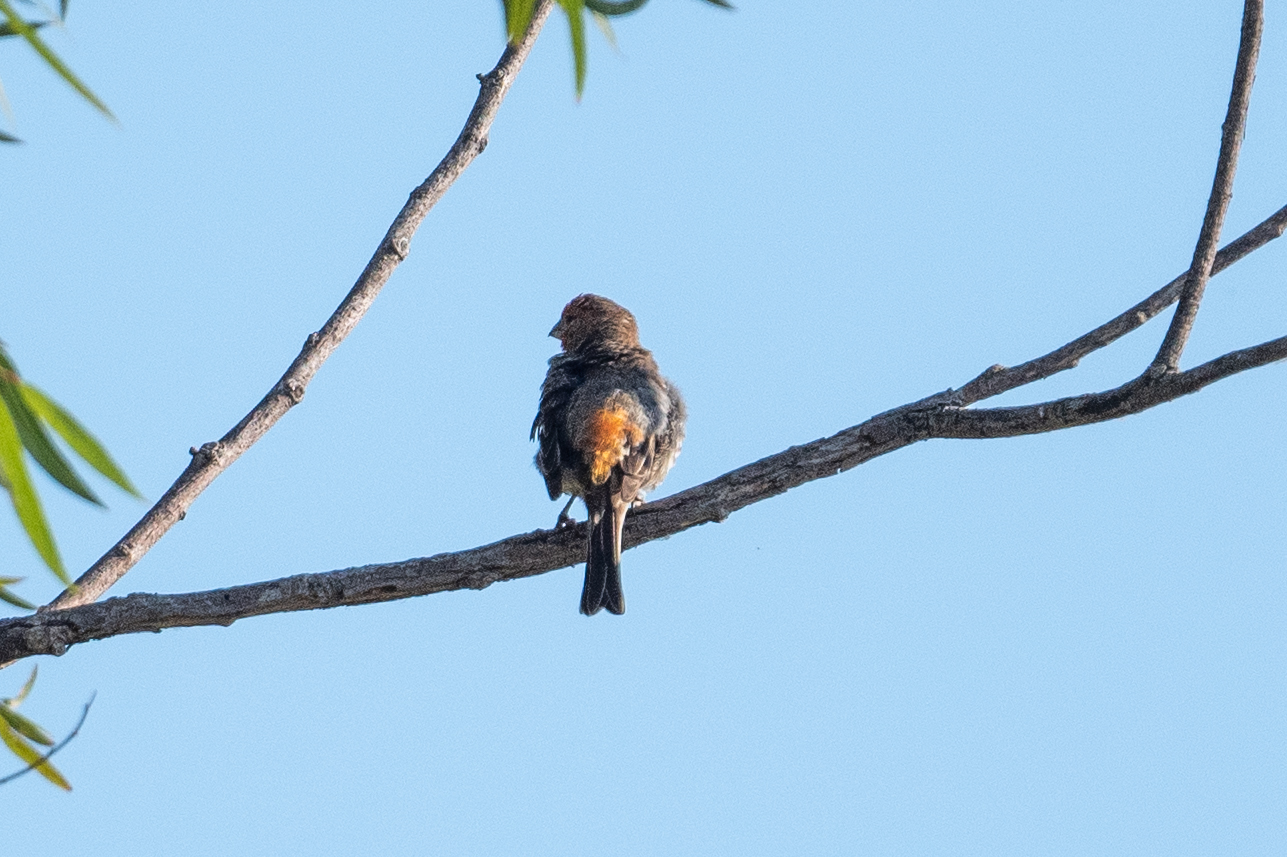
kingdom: Animalia
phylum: Chordata
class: Aves
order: Passeriformes
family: Fringillidae
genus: Haemorhous
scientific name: Haemorhous mexicanus
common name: House finch
